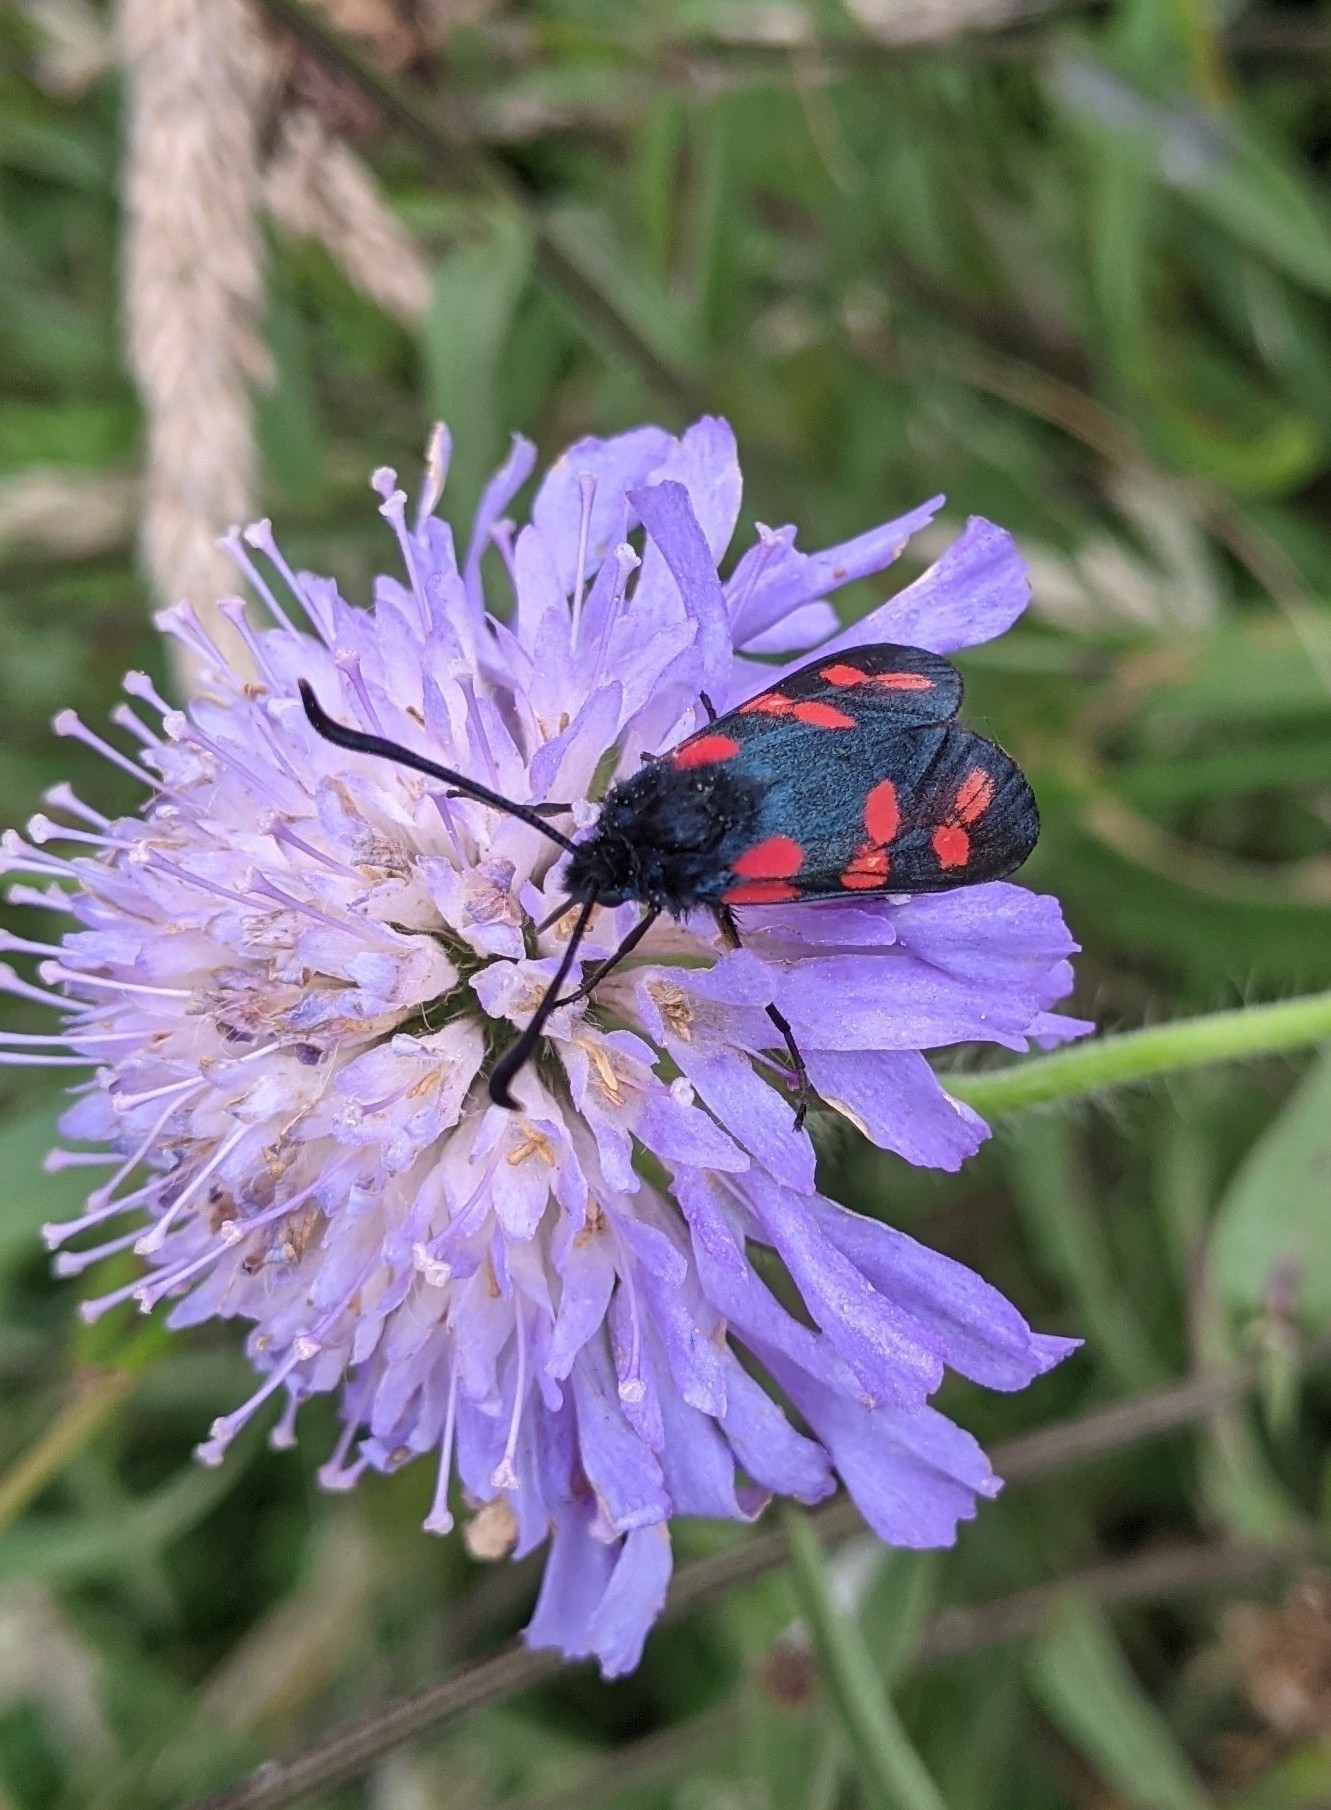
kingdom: Animalia
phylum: Arthropoda
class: Insecta
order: Lepidoptera
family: Zygaenidae
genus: Zygaena
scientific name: Zygaena filipendulae
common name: Six-spot burnet
